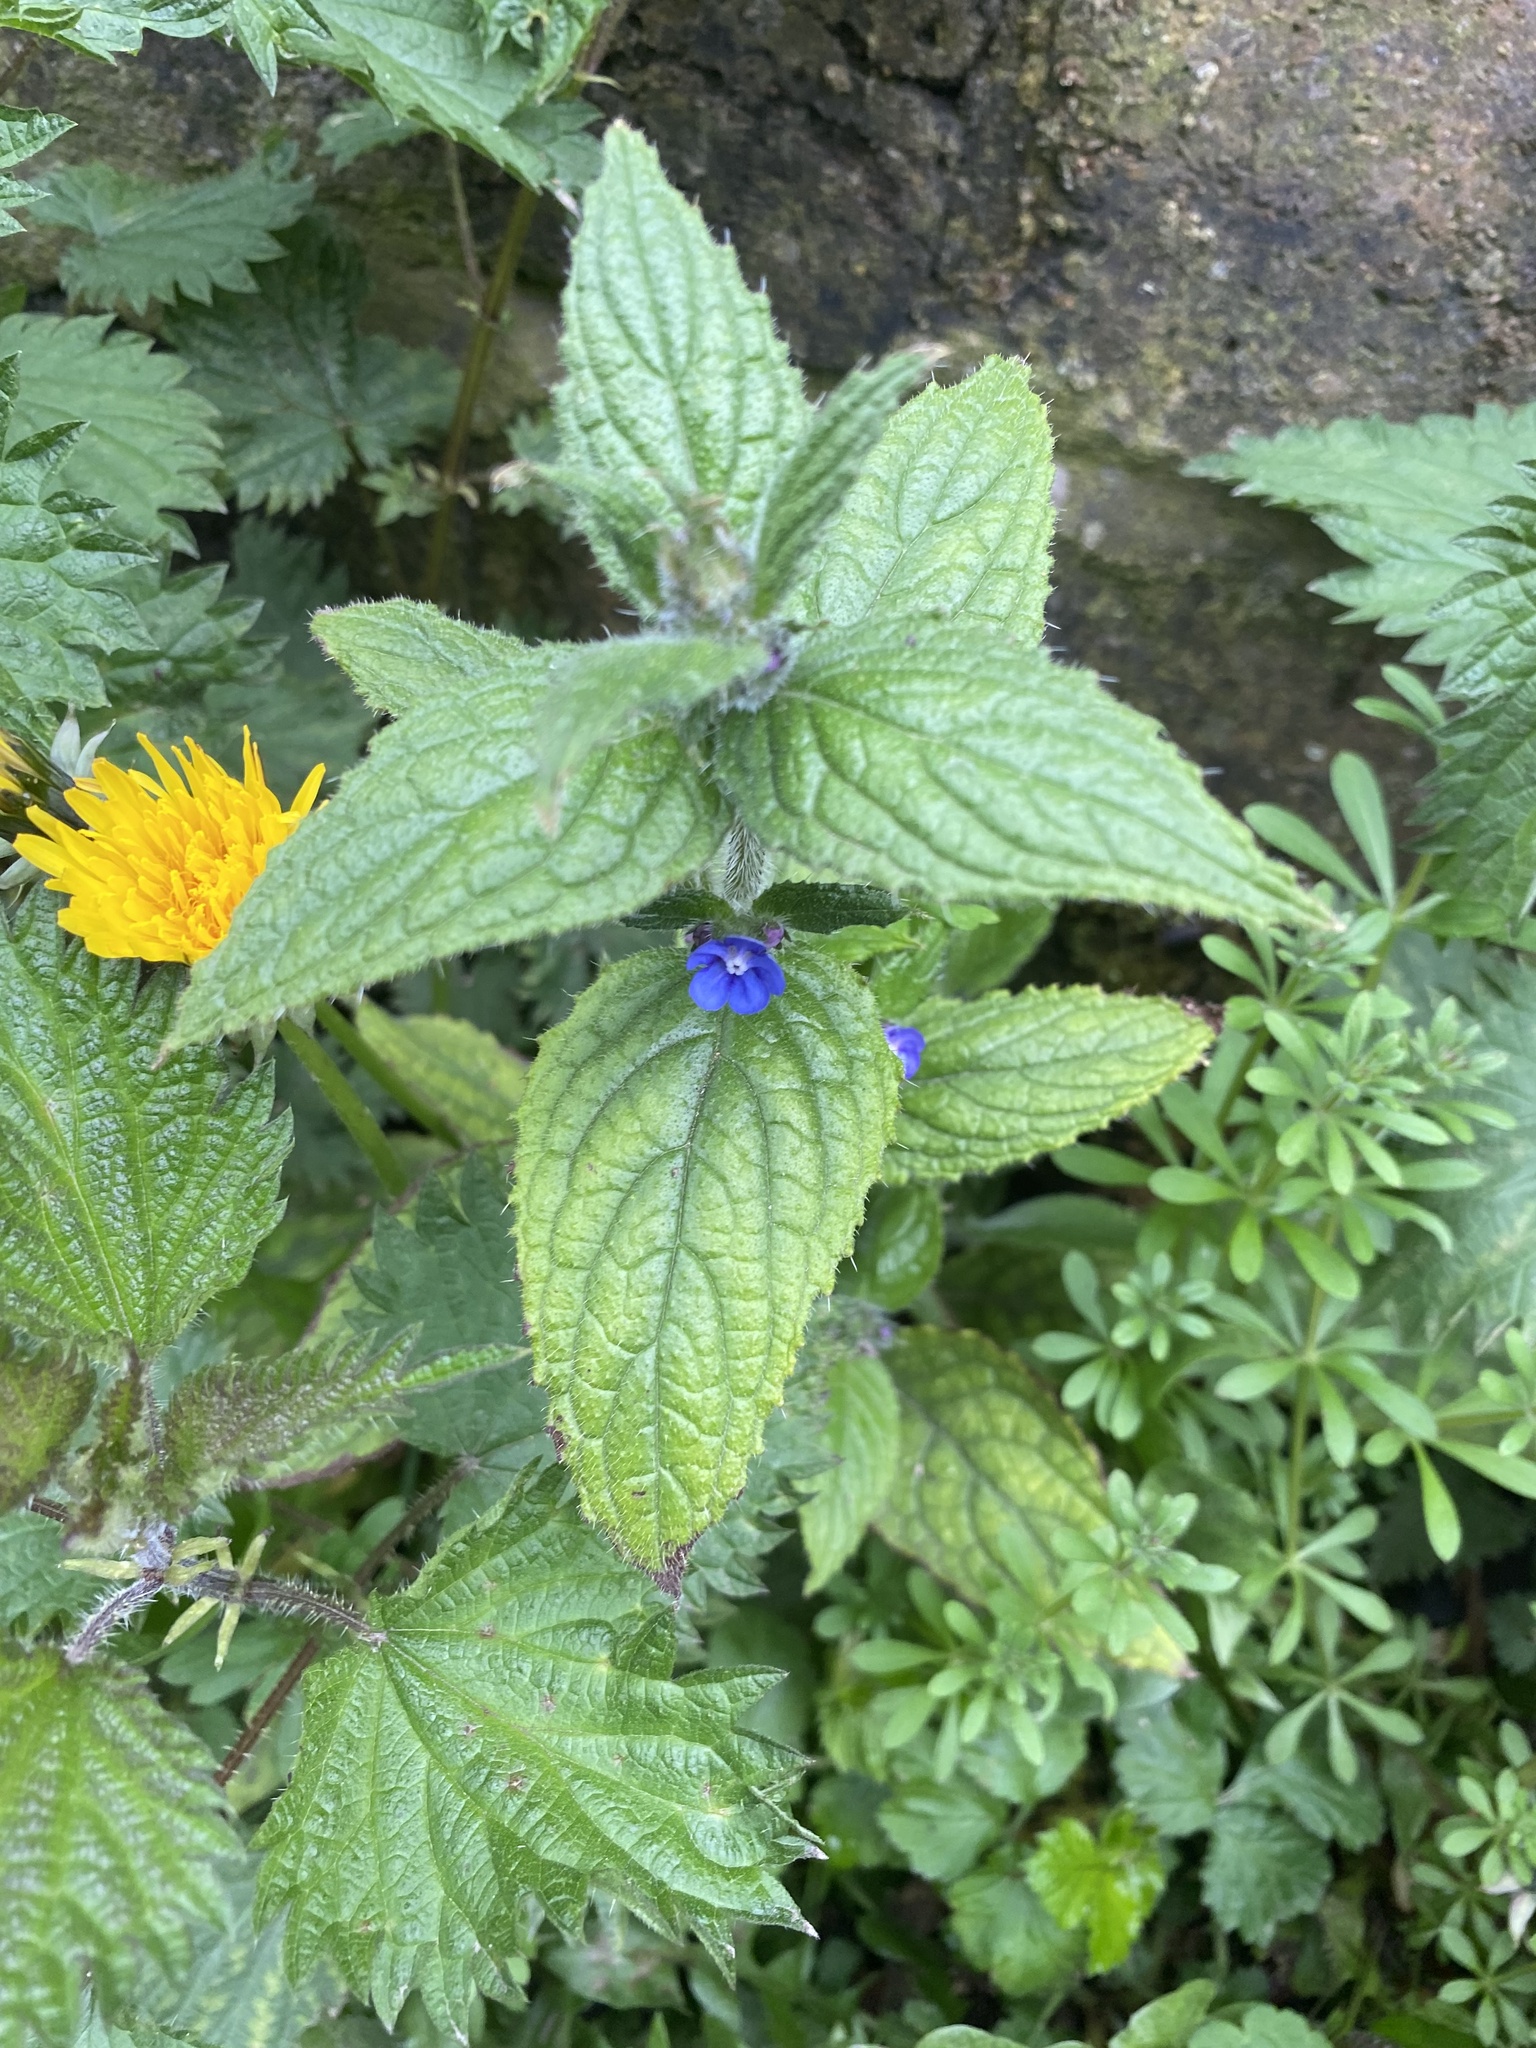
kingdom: Plantae
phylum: Tracheophyta
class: Magnoliopsida
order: Boraginales
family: Boraginaceae
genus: Pentaglottis
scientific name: Pentaglottis sempervirens
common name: Green alkanet
